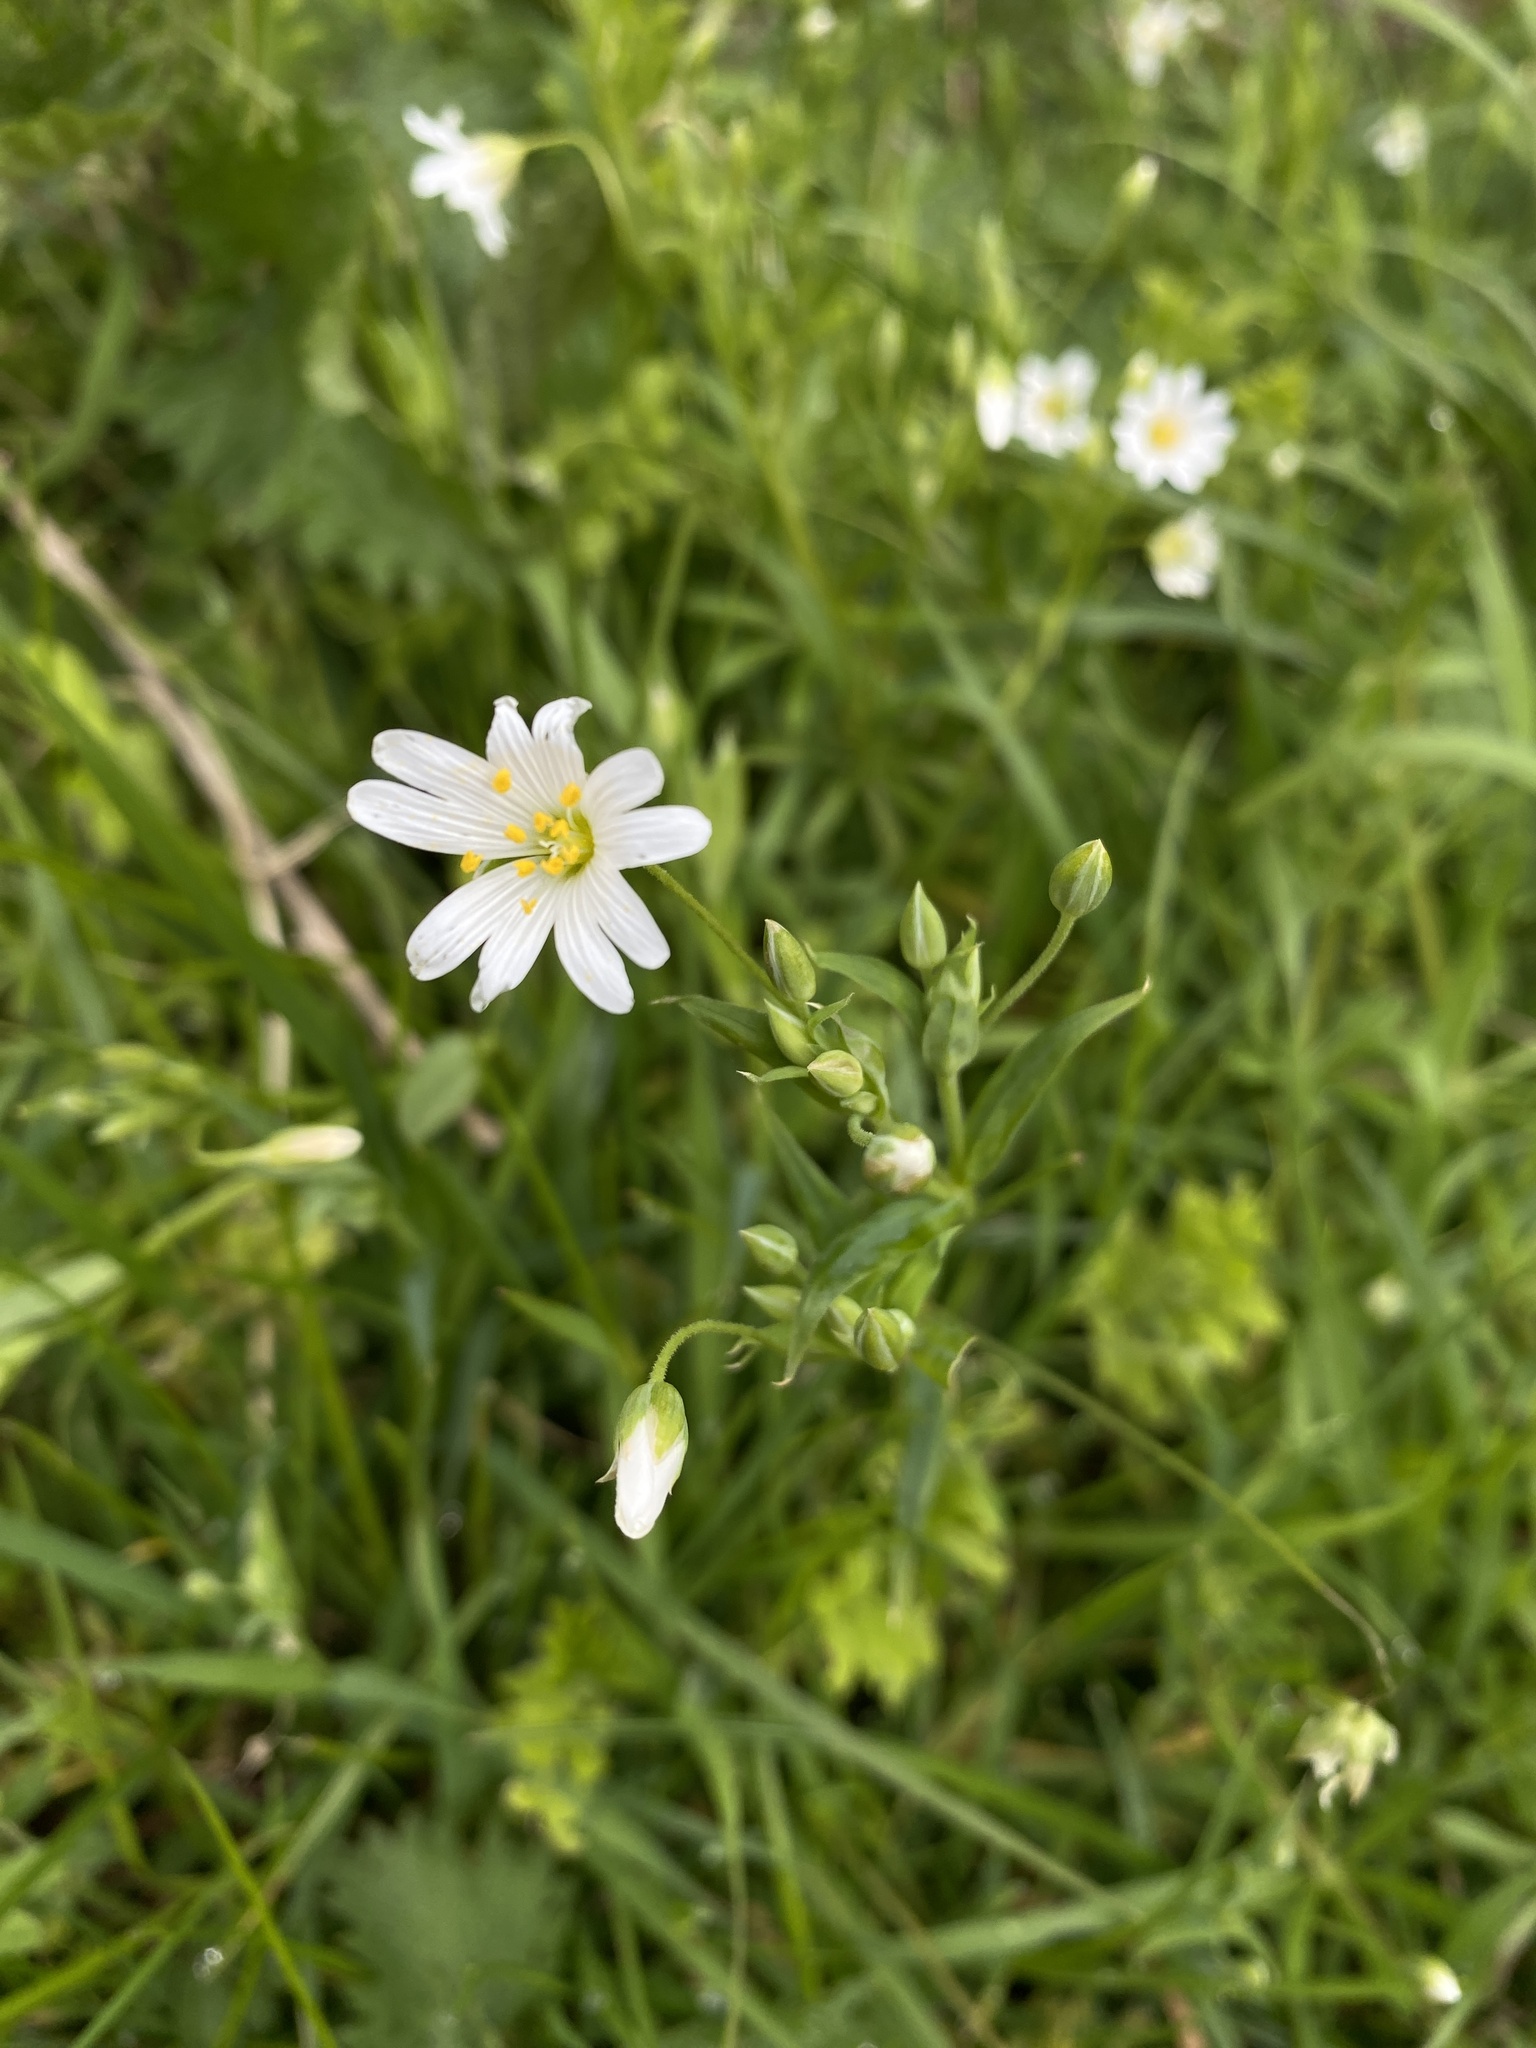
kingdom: Plantae
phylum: Tracheophyta
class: Magnoliopsida
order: Caryophyllales
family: Caryophyllaceae
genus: Rabelera
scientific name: Rabelera holostea
